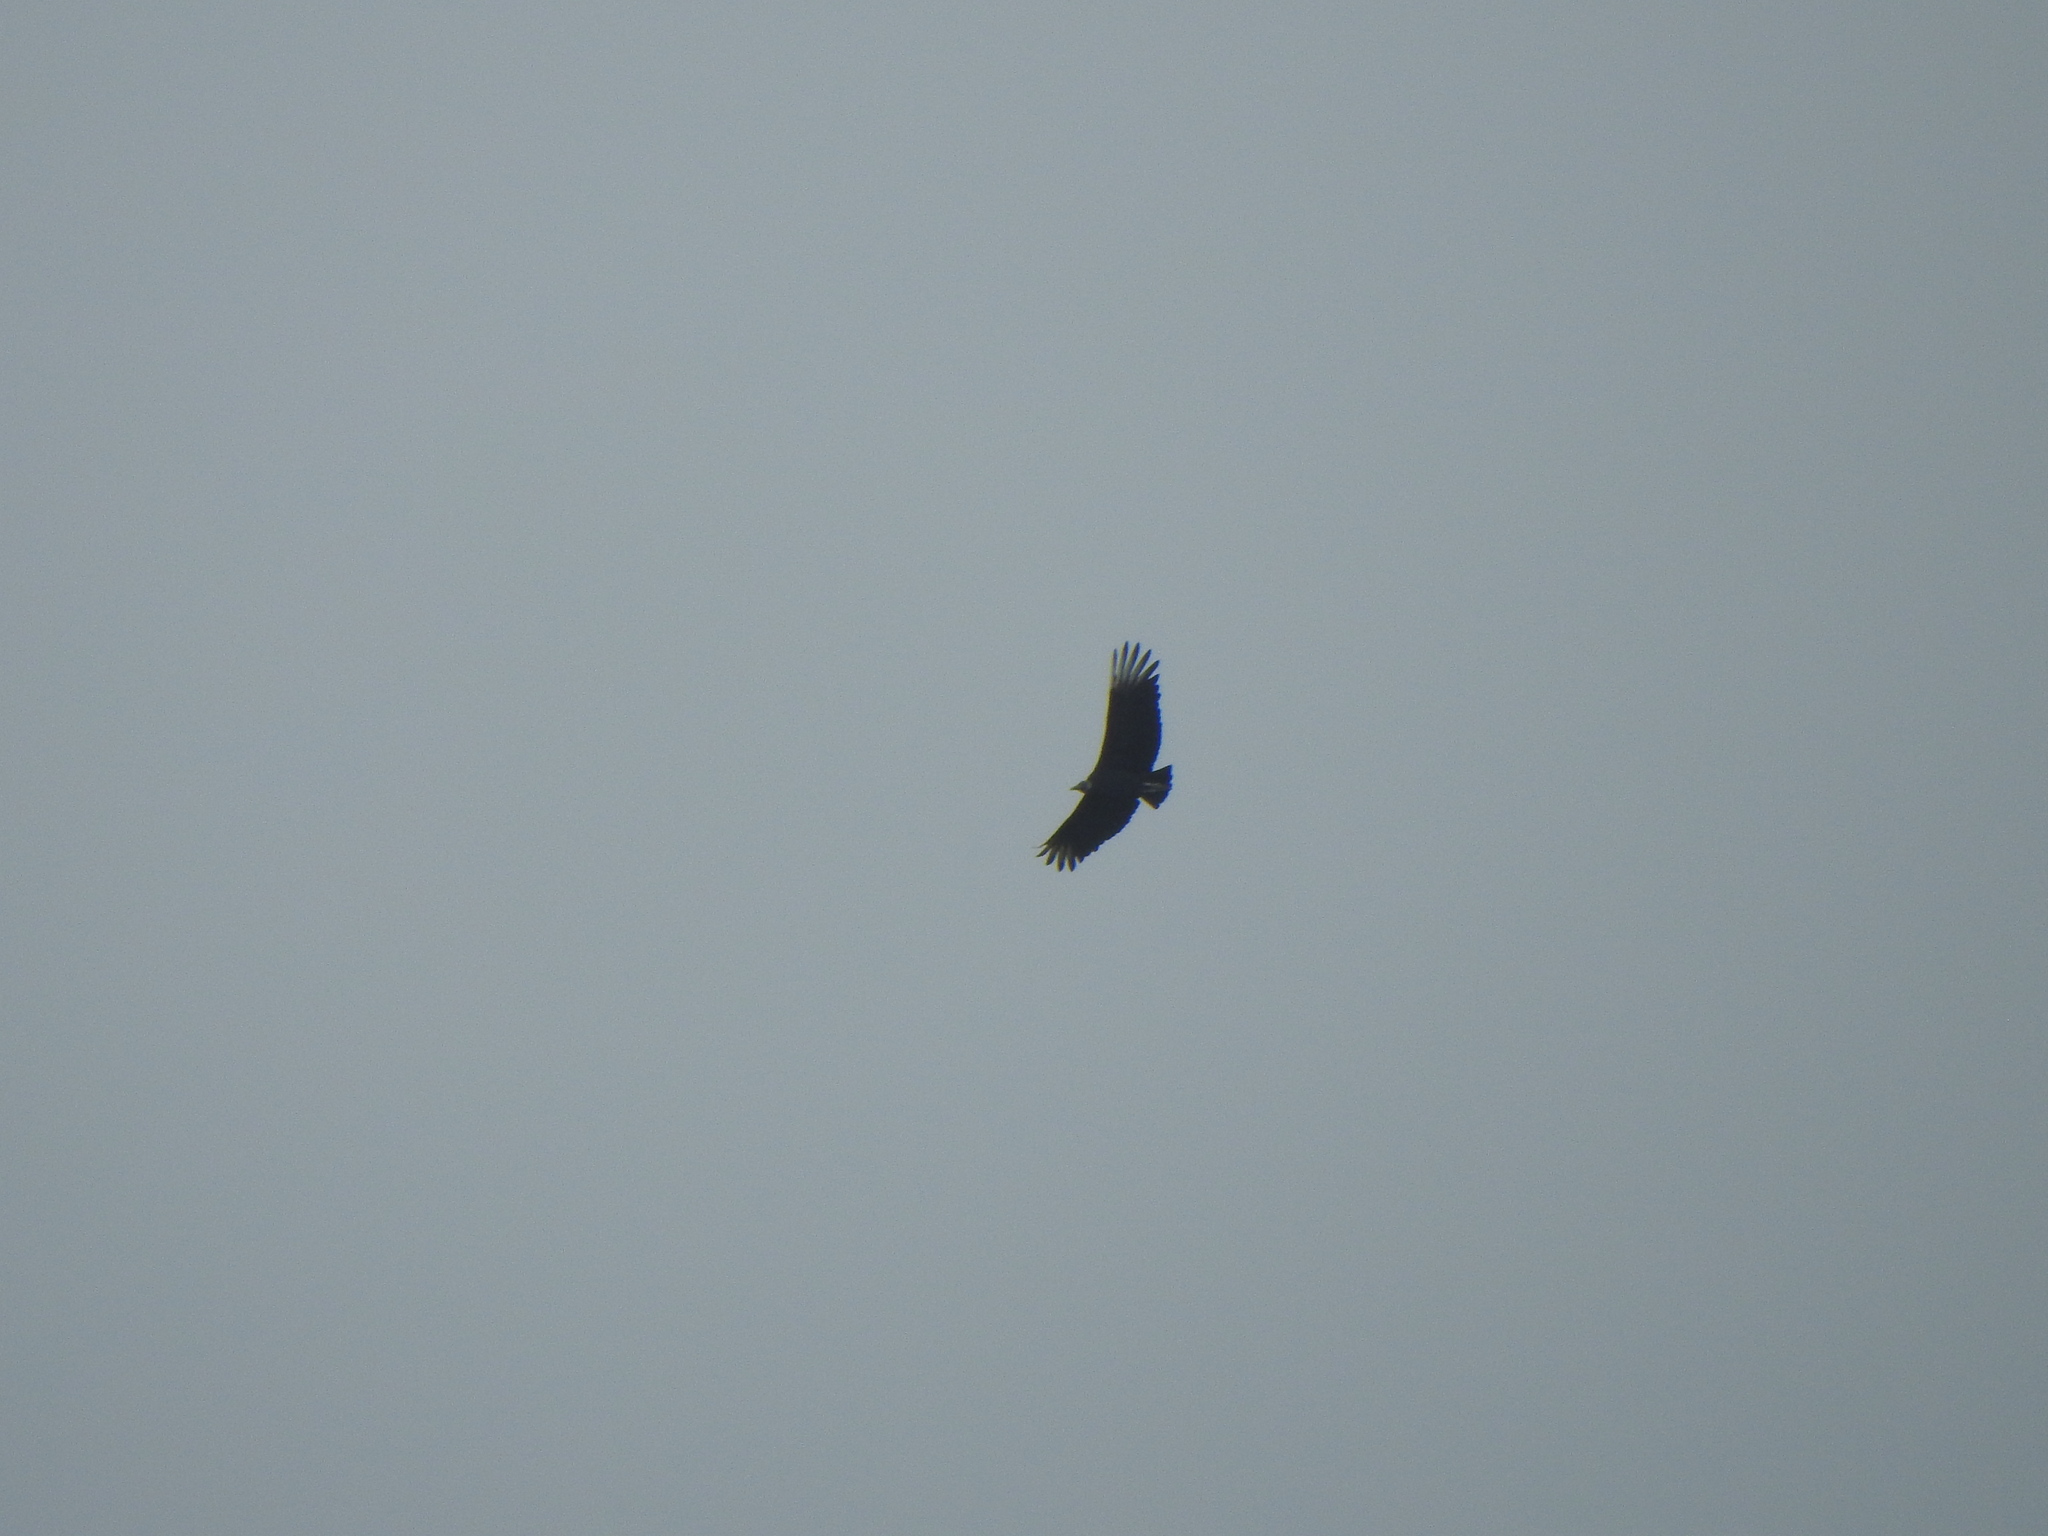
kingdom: Animalia
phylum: Chordata
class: Aves
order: Accipitriformes
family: Cathartidae
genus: Coragyps
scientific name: Coragyps atratus
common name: Black vulture
